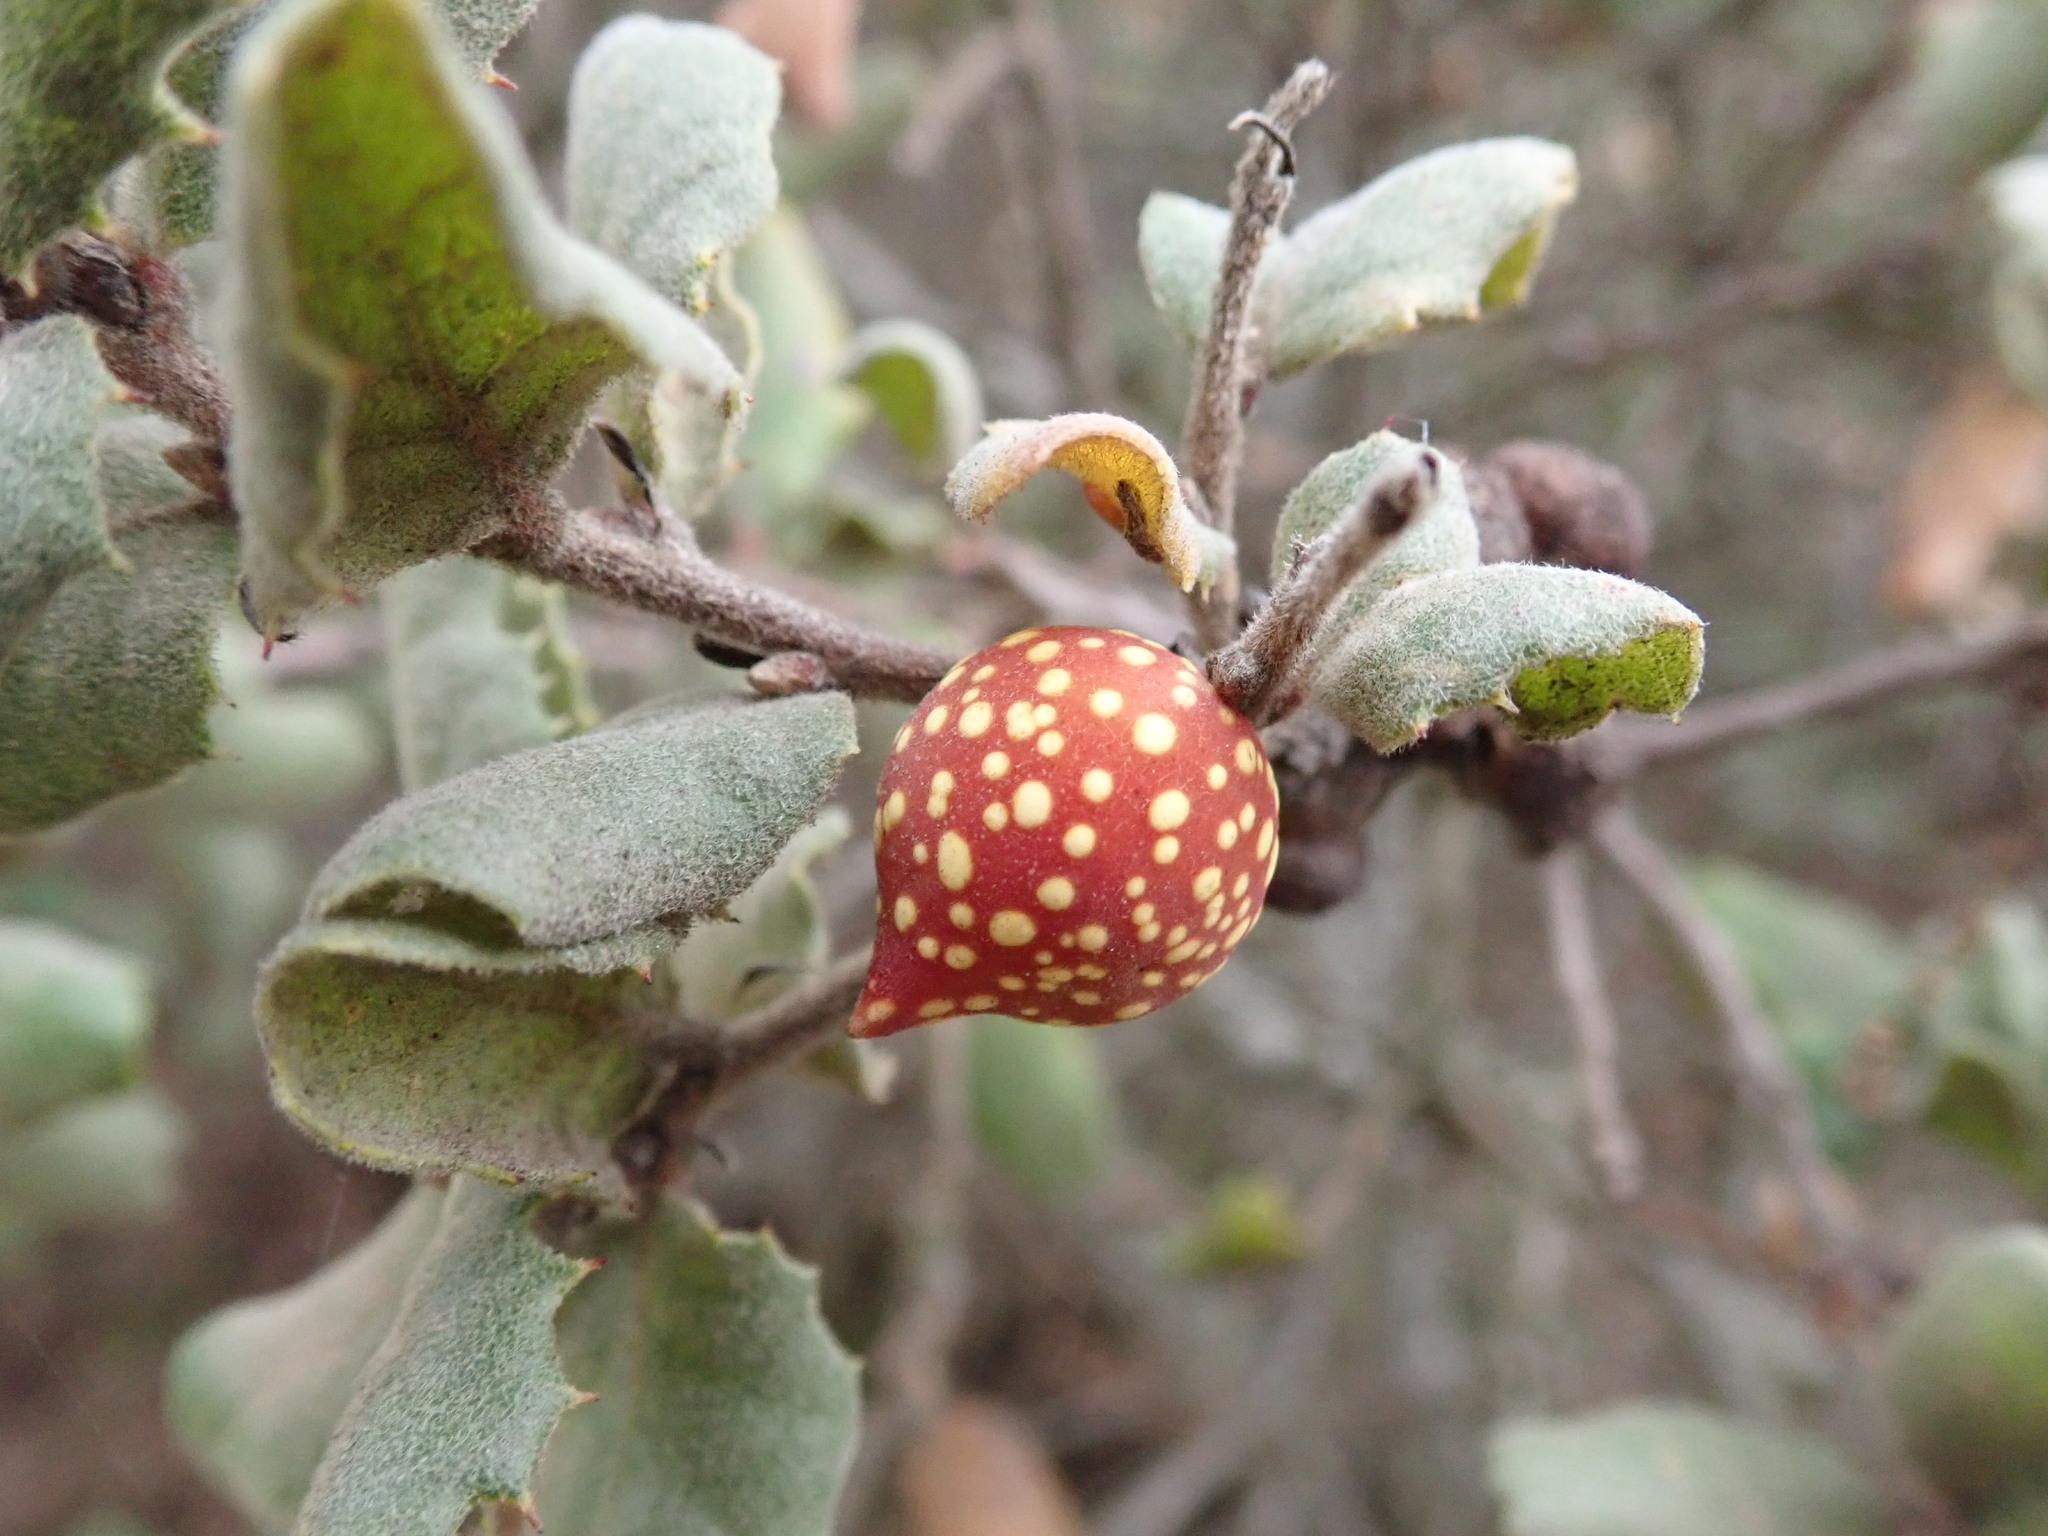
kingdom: Animalia
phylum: Arthropoda
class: Insecta
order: Hymenoptera
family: Cynipidae
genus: Burnettweldia
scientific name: Burnettweldia
